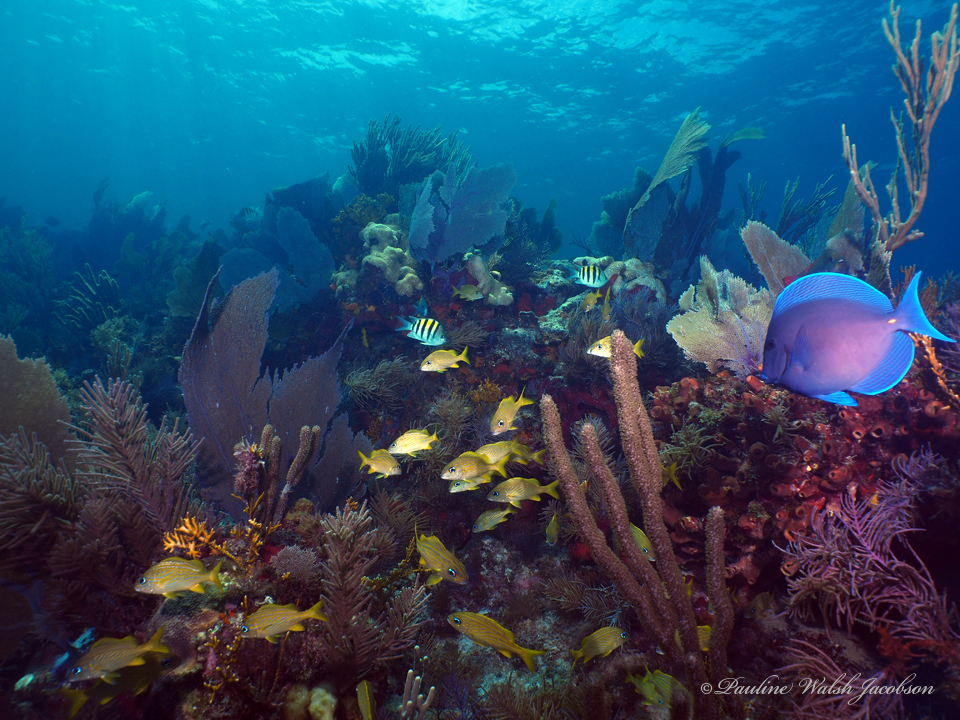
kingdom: Animalia
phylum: Chordata
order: Perciformes
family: Acanthuridae
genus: Acanthurus
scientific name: Acanthurus coeruleus
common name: Blue tang
